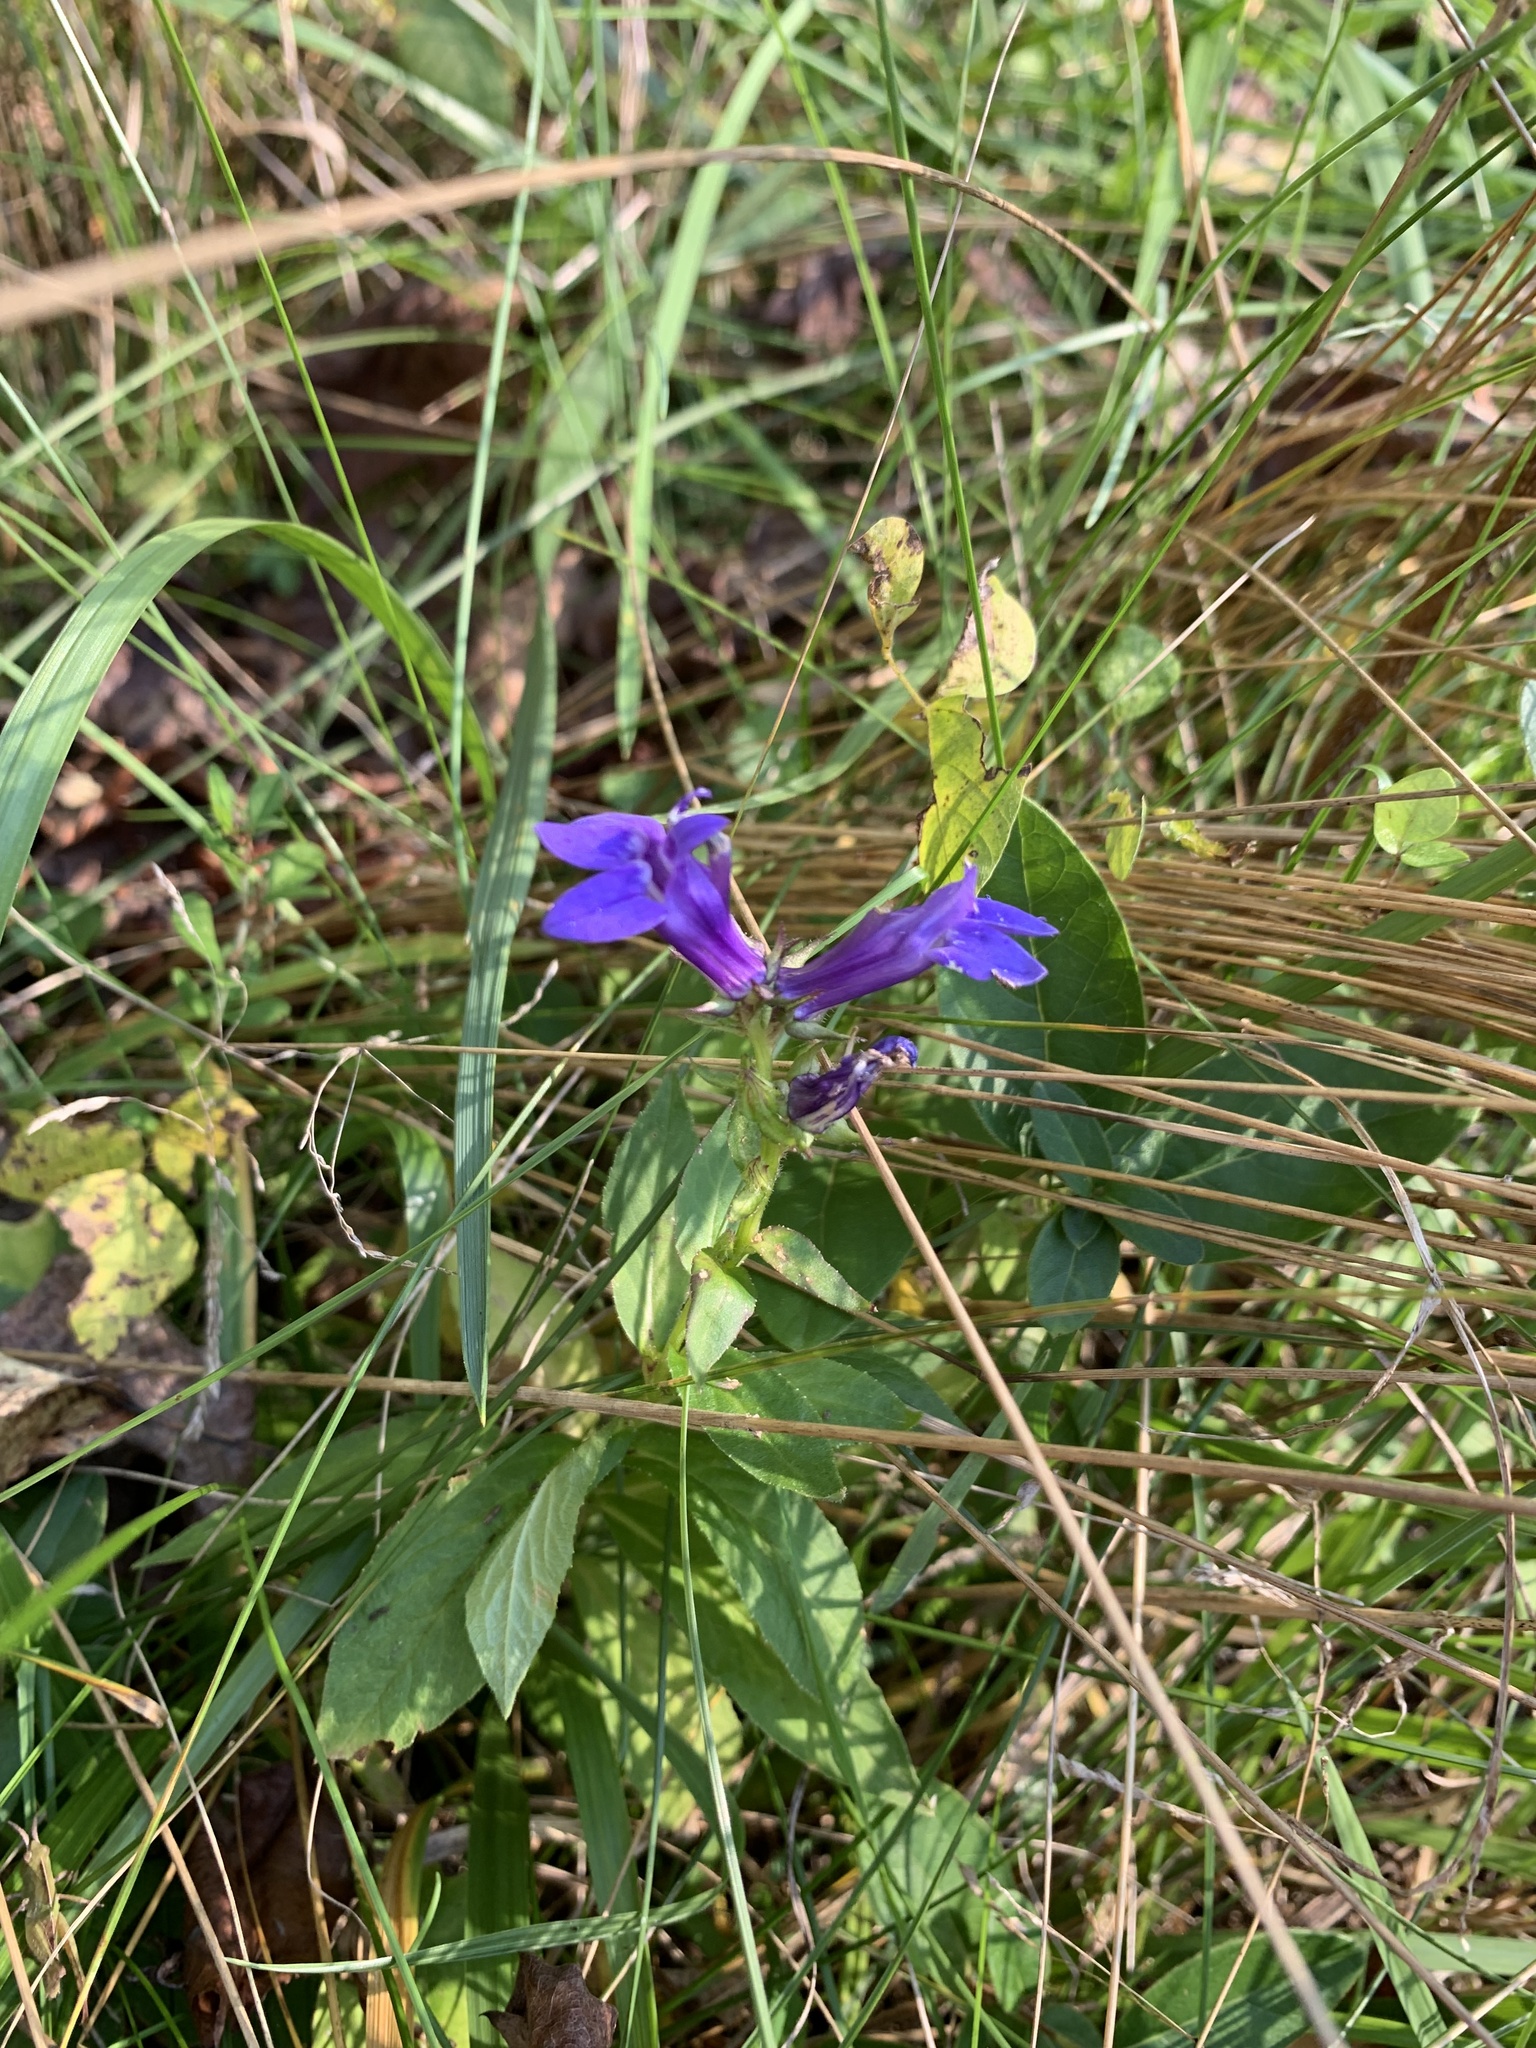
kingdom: Plantae
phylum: Tracheophyta
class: Magnoliopsida
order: Asterales
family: Campanulaceae
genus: Lobelia
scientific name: Lobelia siphilitica
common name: Great lobelia
